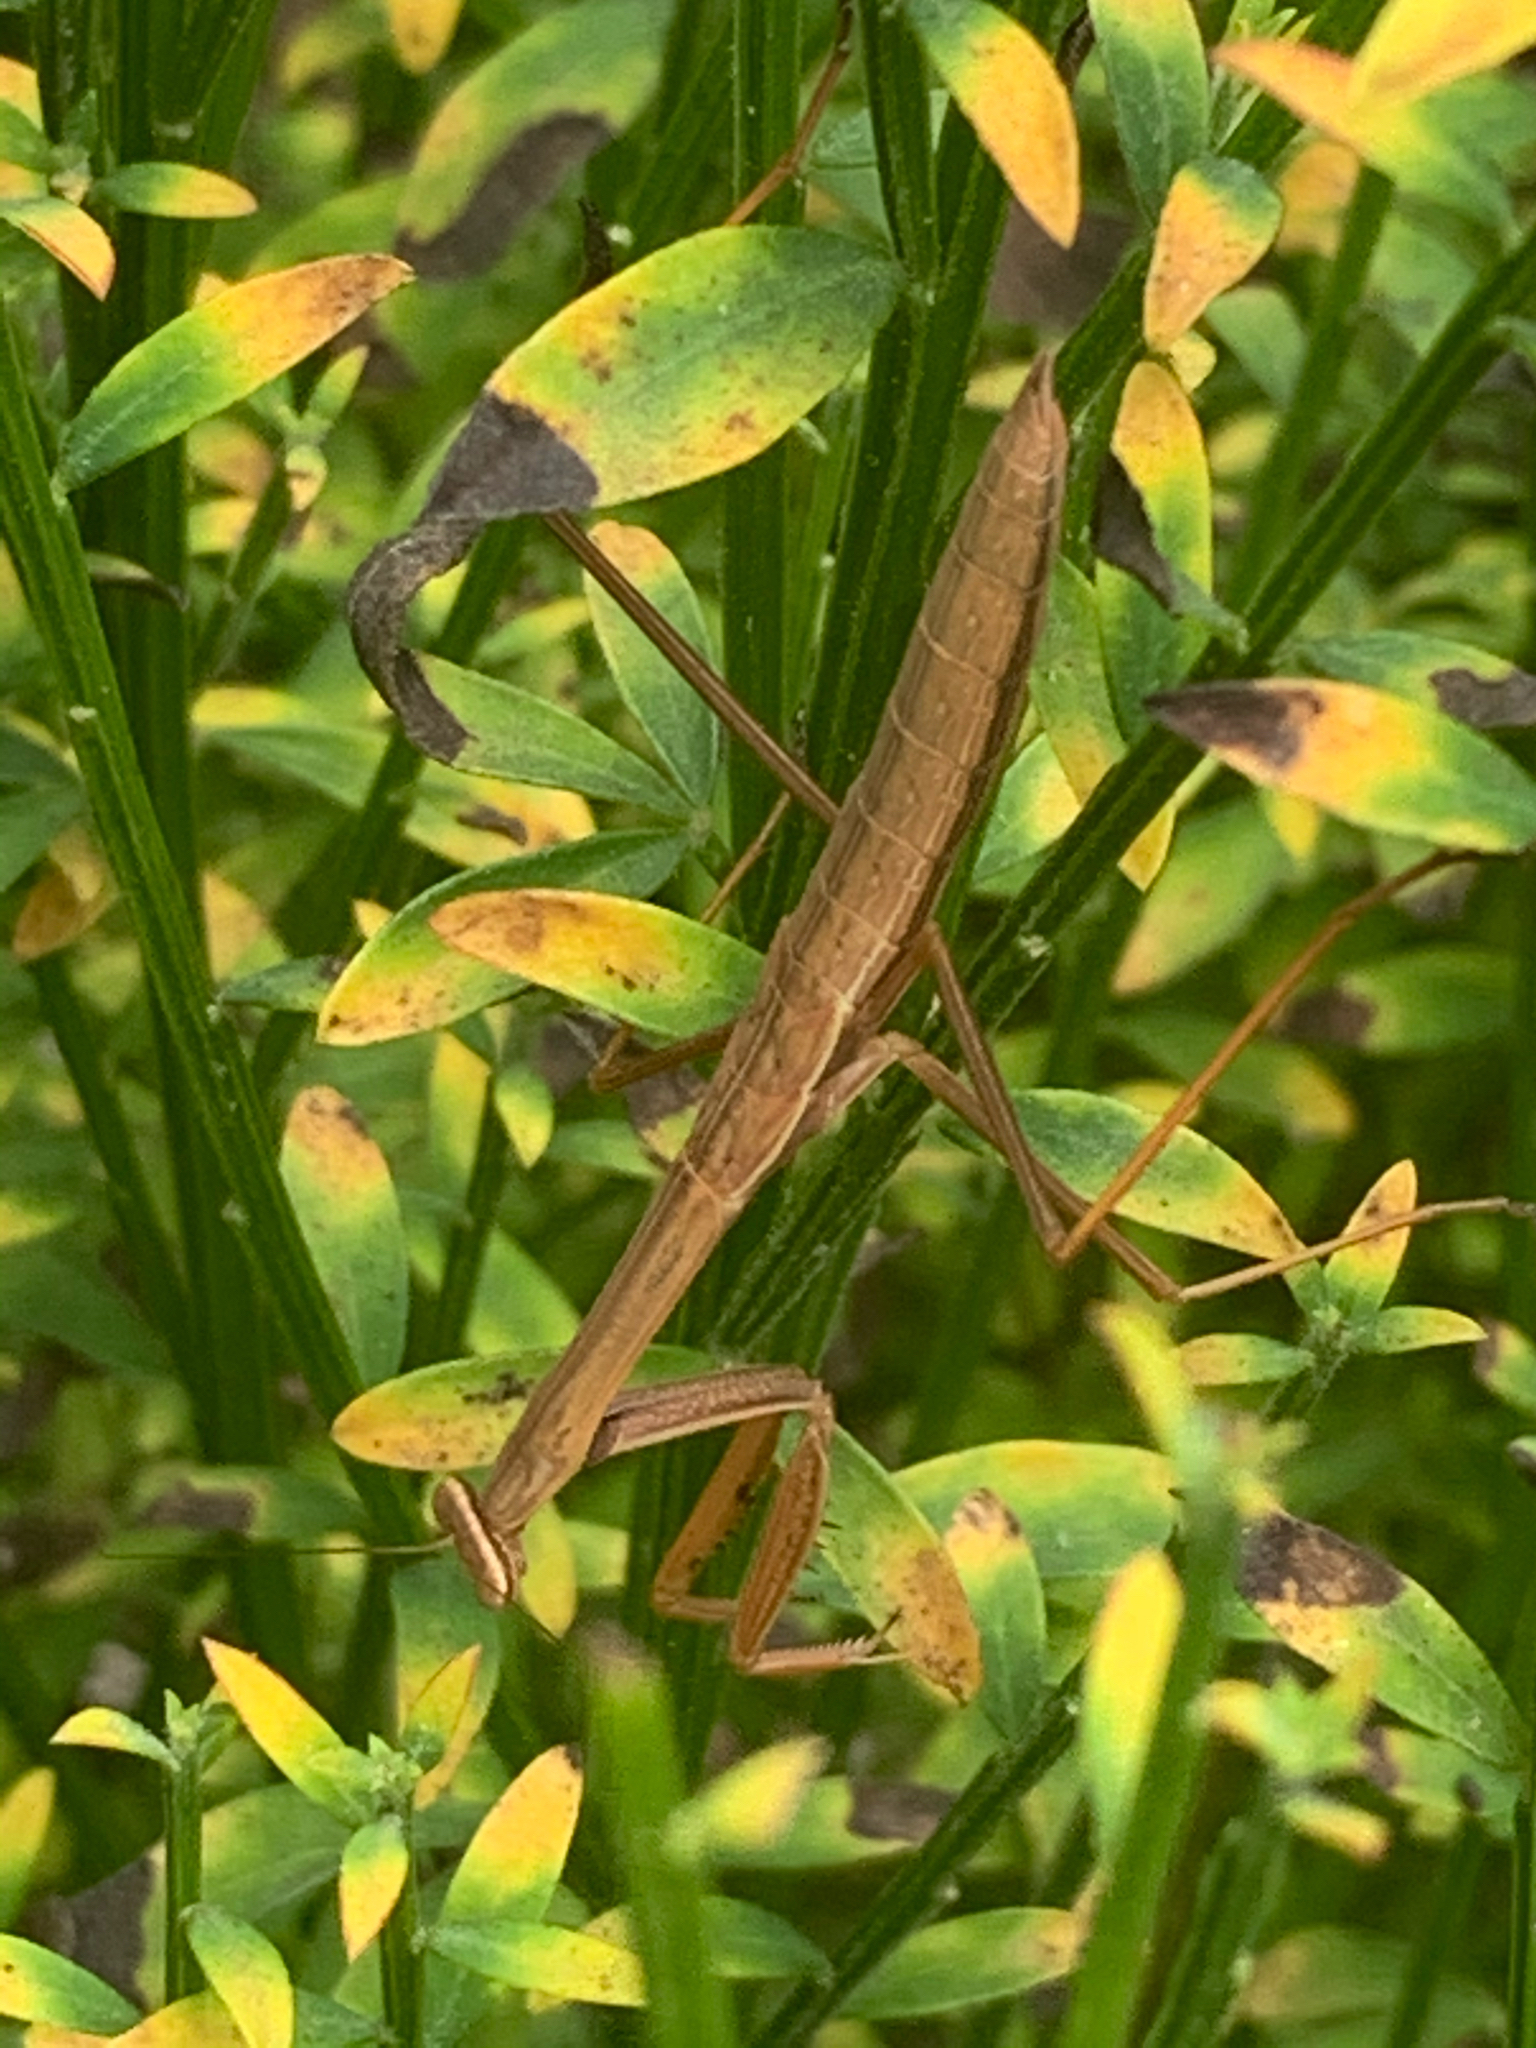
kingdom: Animalia
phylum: Arthropoda
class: Insecta
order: Mantodea
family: Mantidae
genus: Tenodera
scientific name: Tenodera sinensis
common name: Chinese mantis
